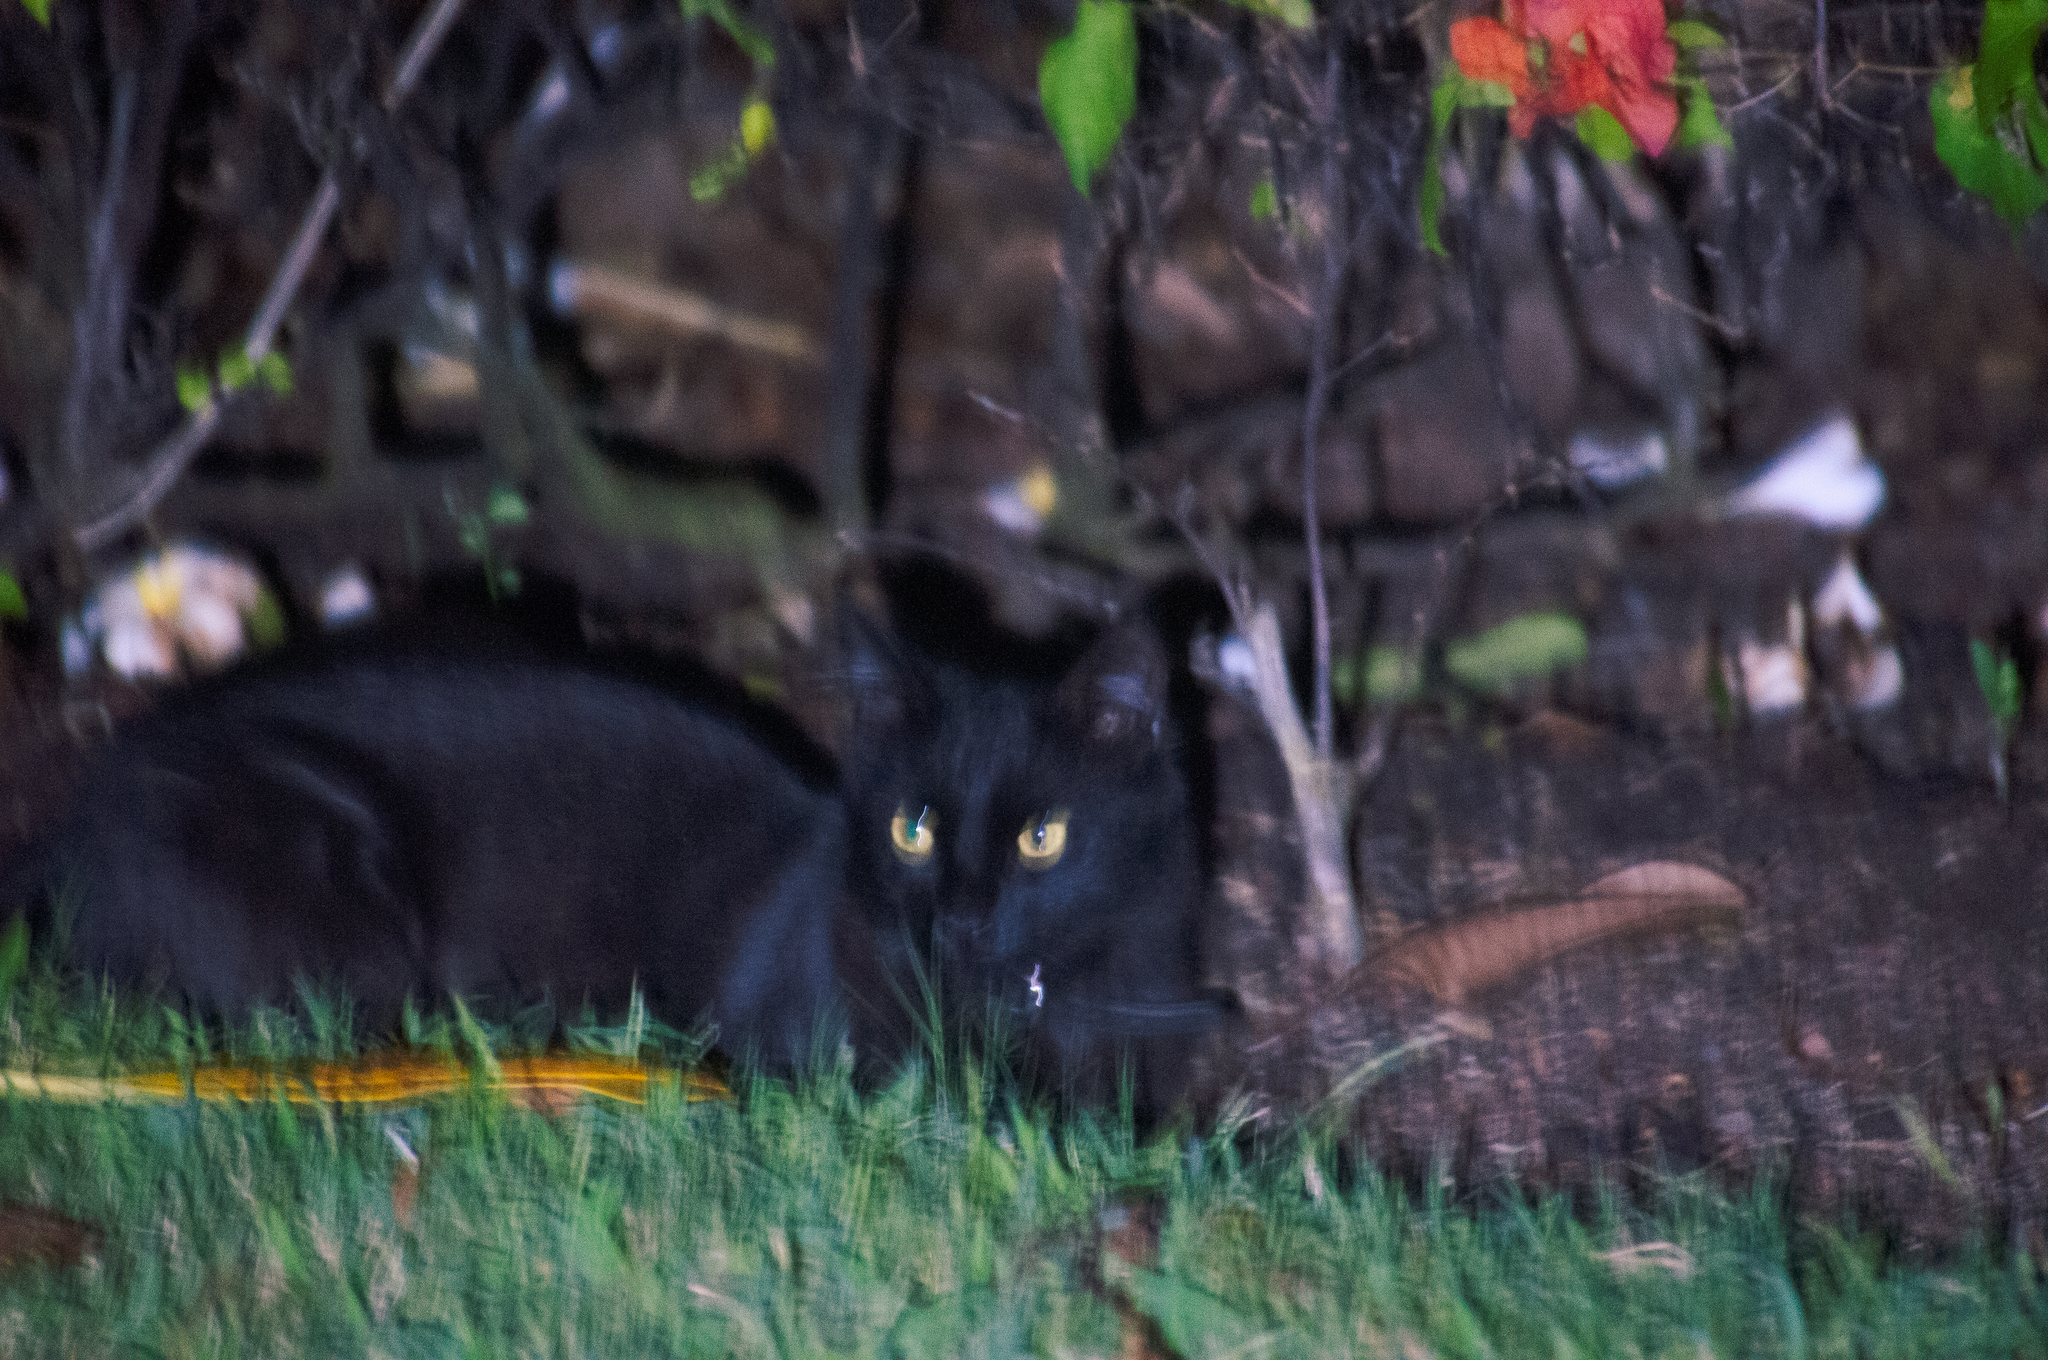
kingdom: Animalia
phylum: Chordata
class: Mammalia
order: Carnivora
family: Felidae
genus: Felis
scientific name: Felis catus
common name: Domestic cat
